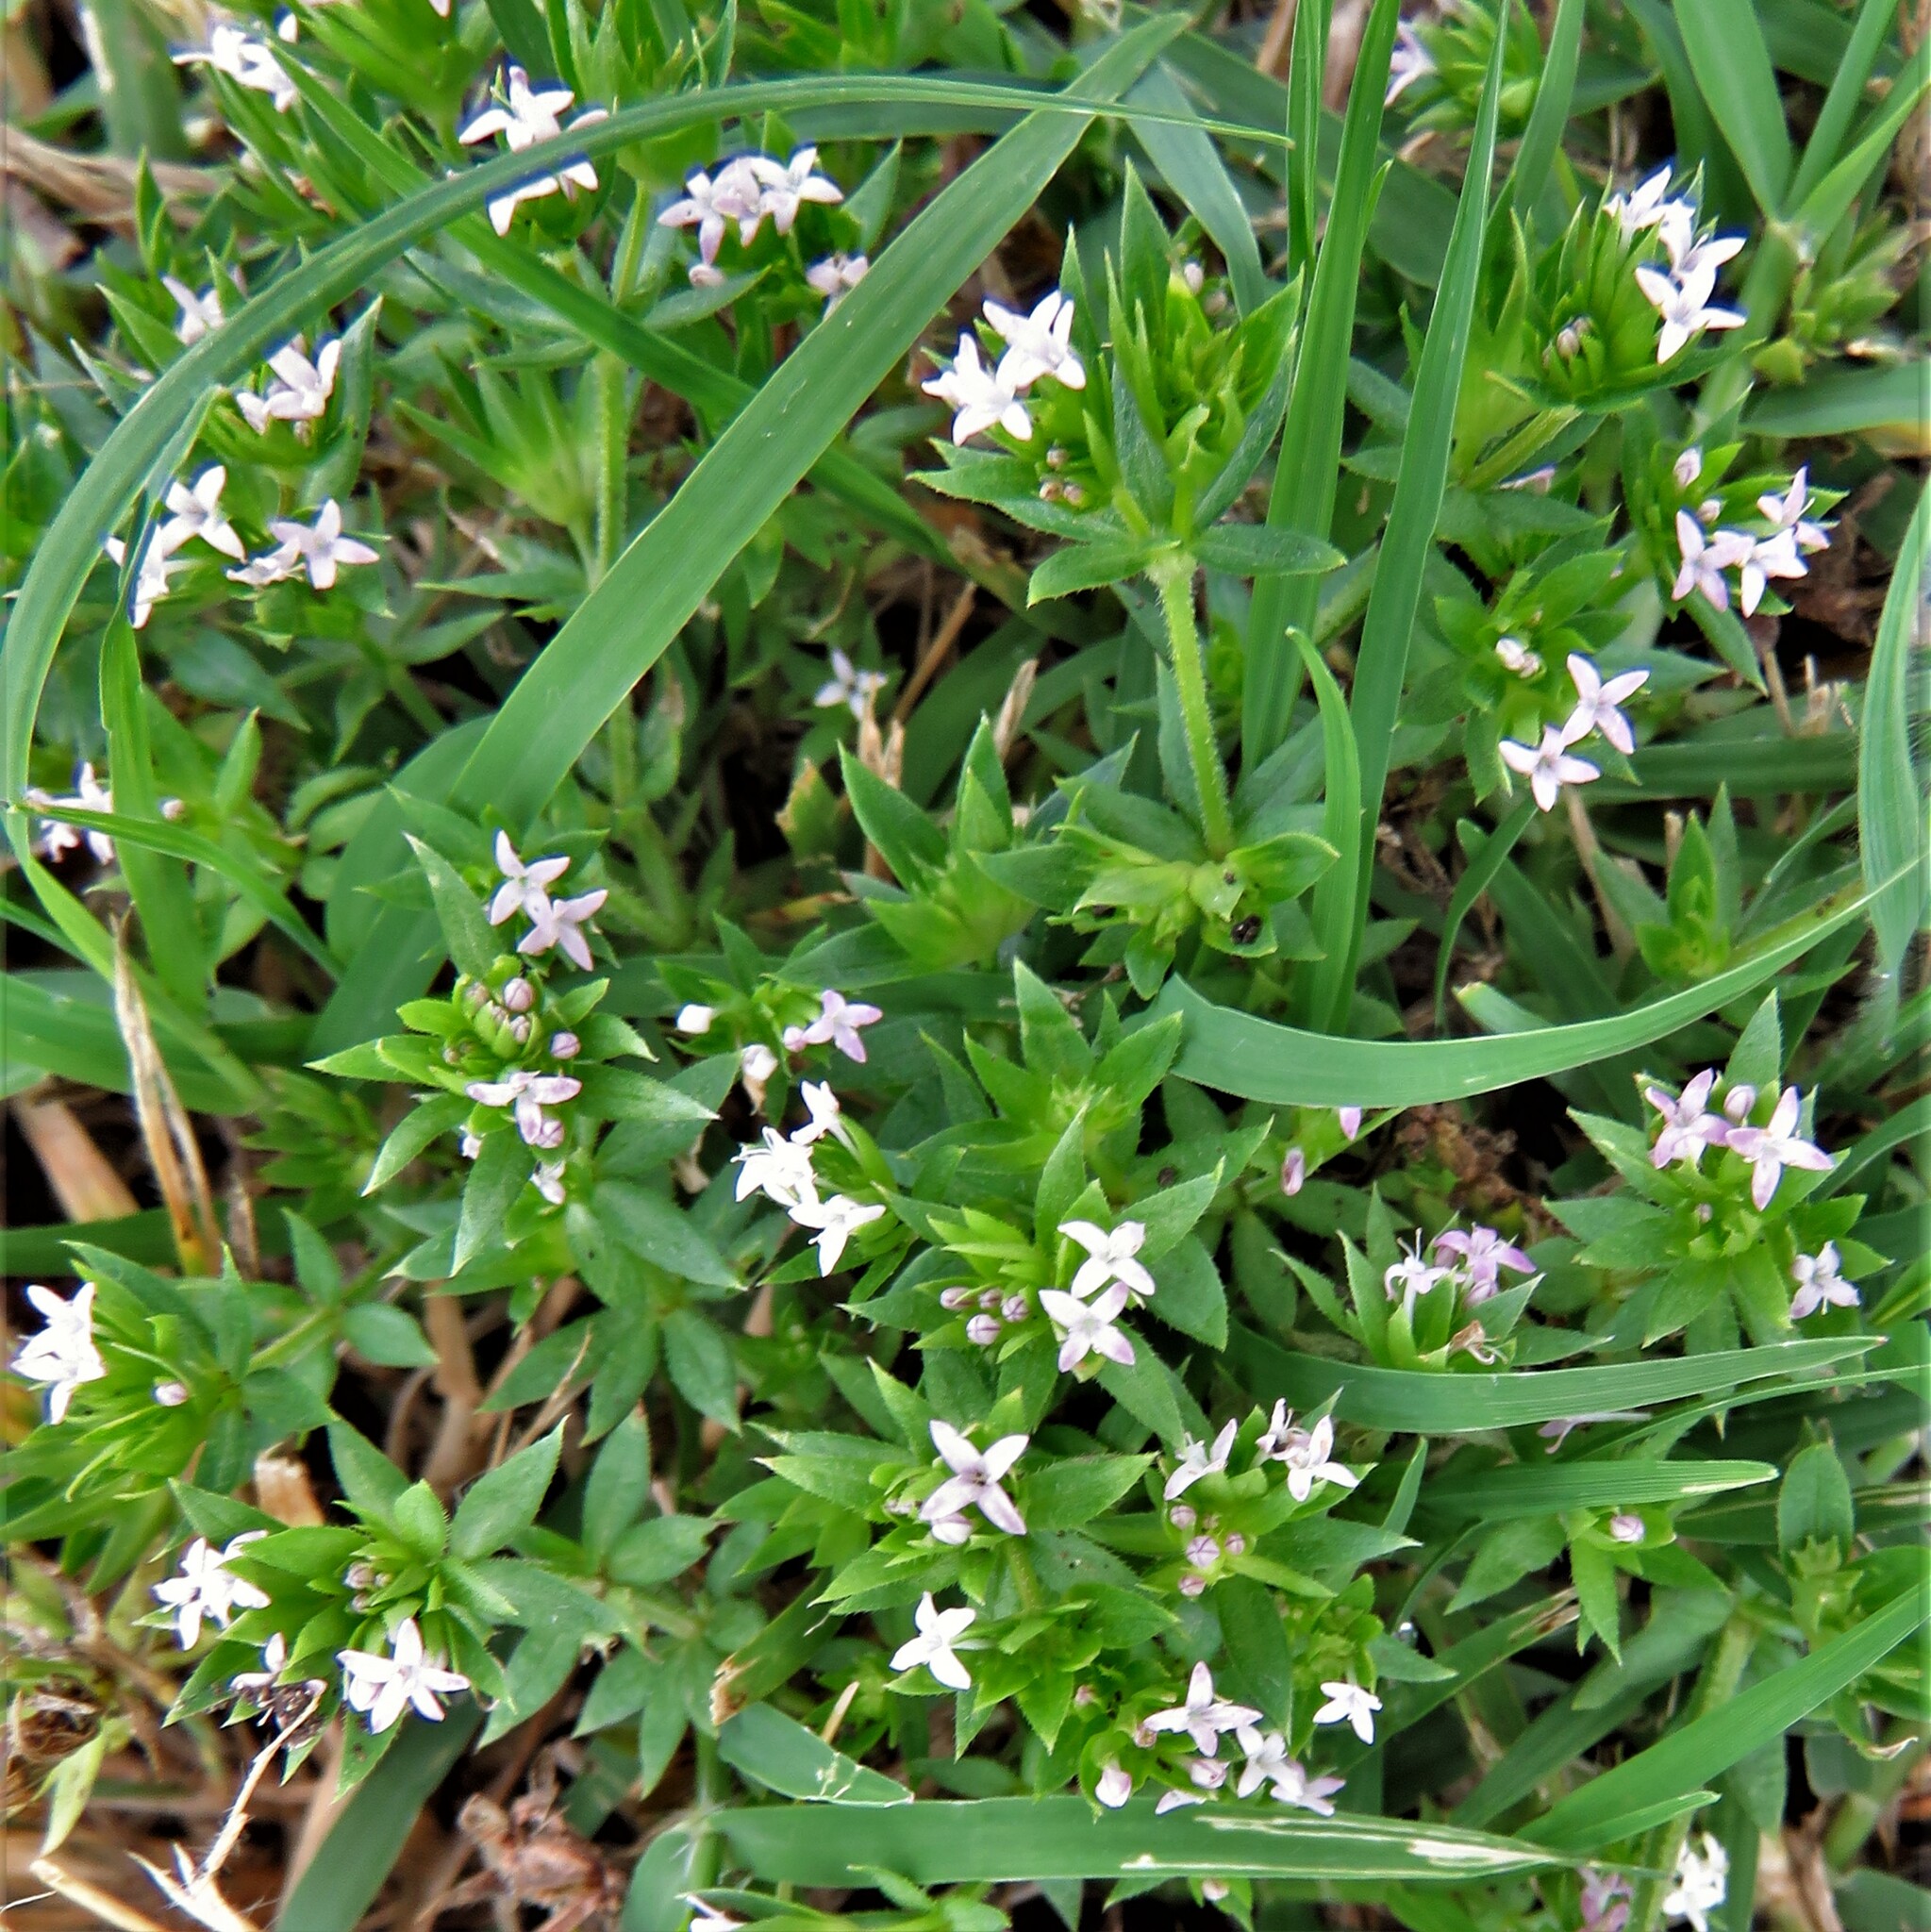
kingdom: Plantae
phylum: Tracheophyta
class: Magnoliopsida
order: Gentianales
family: Rubiaceae
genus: Sherardia
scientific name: Sherardia arvensis
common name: Field madder
